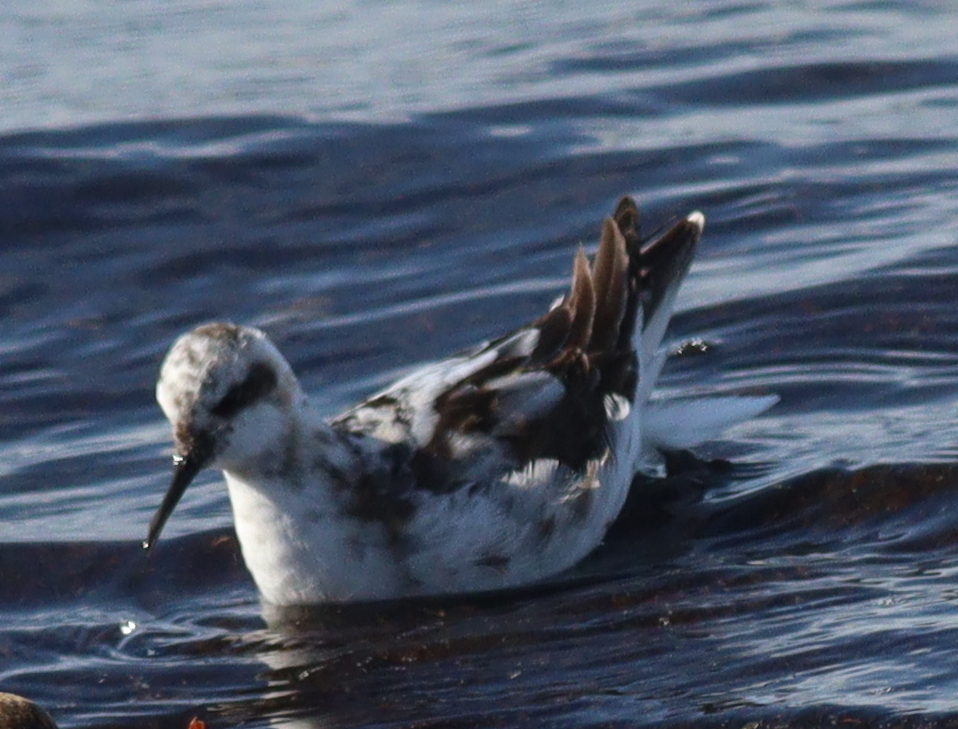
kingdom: Animalia
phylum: Chordata
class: Aves
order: Charadriiformes
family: Scolopacidae
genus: Phalaropus
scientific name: Phalaropus lobatus
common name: Red-necked phalarope
